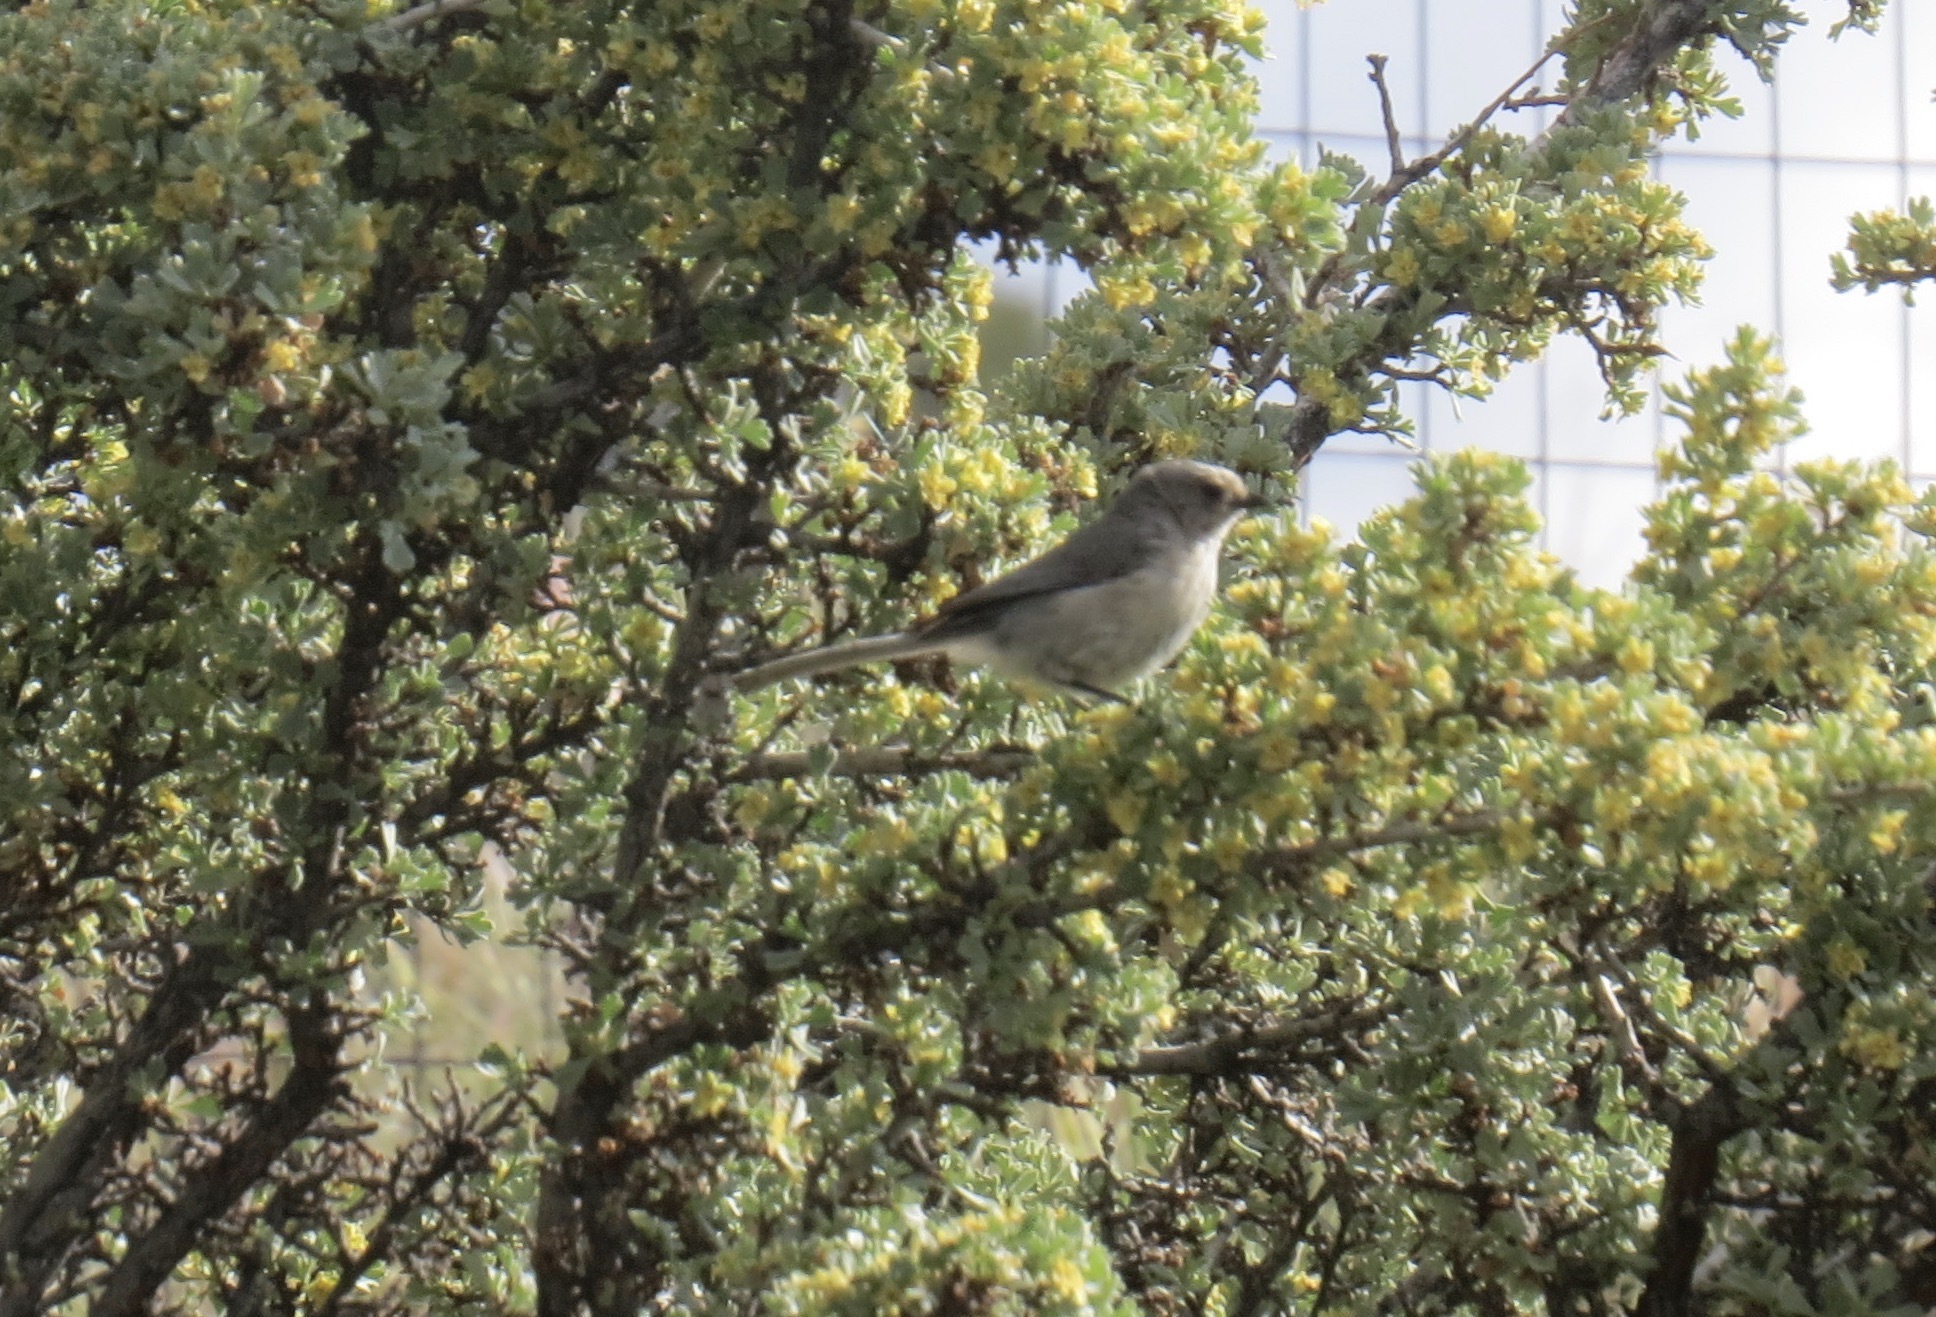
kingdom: Animalia
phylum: Chordata
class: Aves
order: Passeriformes
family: Aegithalidae
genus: Psaltriparus
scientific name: Psaltriparus minimus
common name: American bushtit
